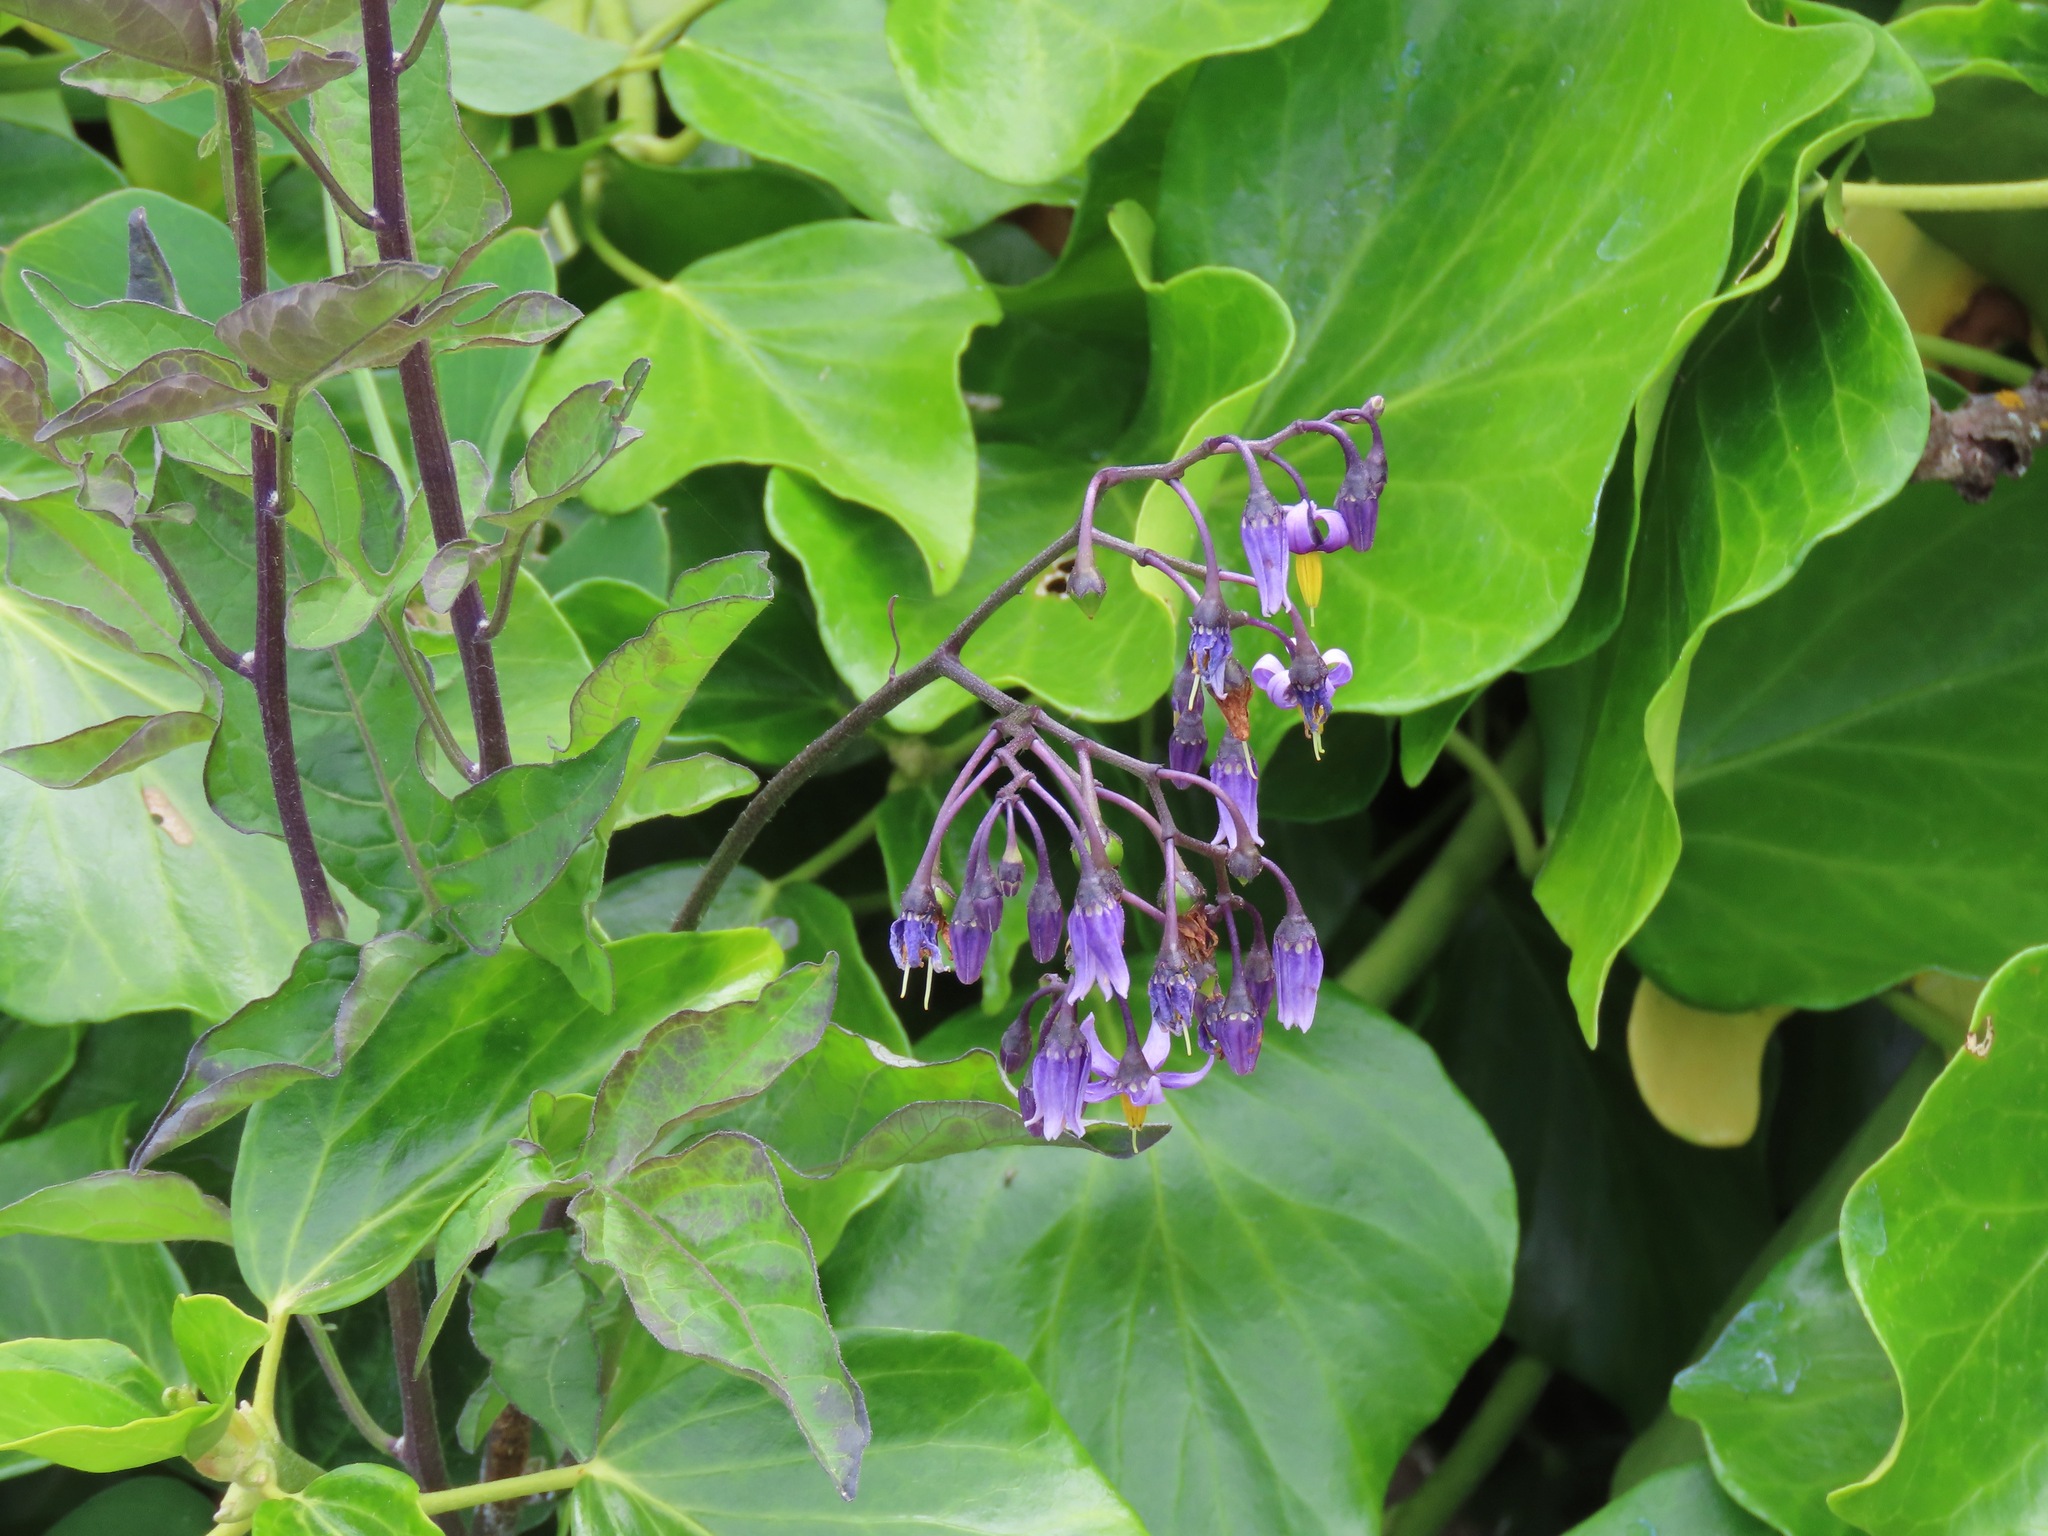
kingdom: Plantae
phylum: Tracheophyta
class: Magnoliopsida
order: Solanales
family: Solanaceae
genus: Solanum
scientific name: Solanum dulcamara
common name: Climbing nightshade
